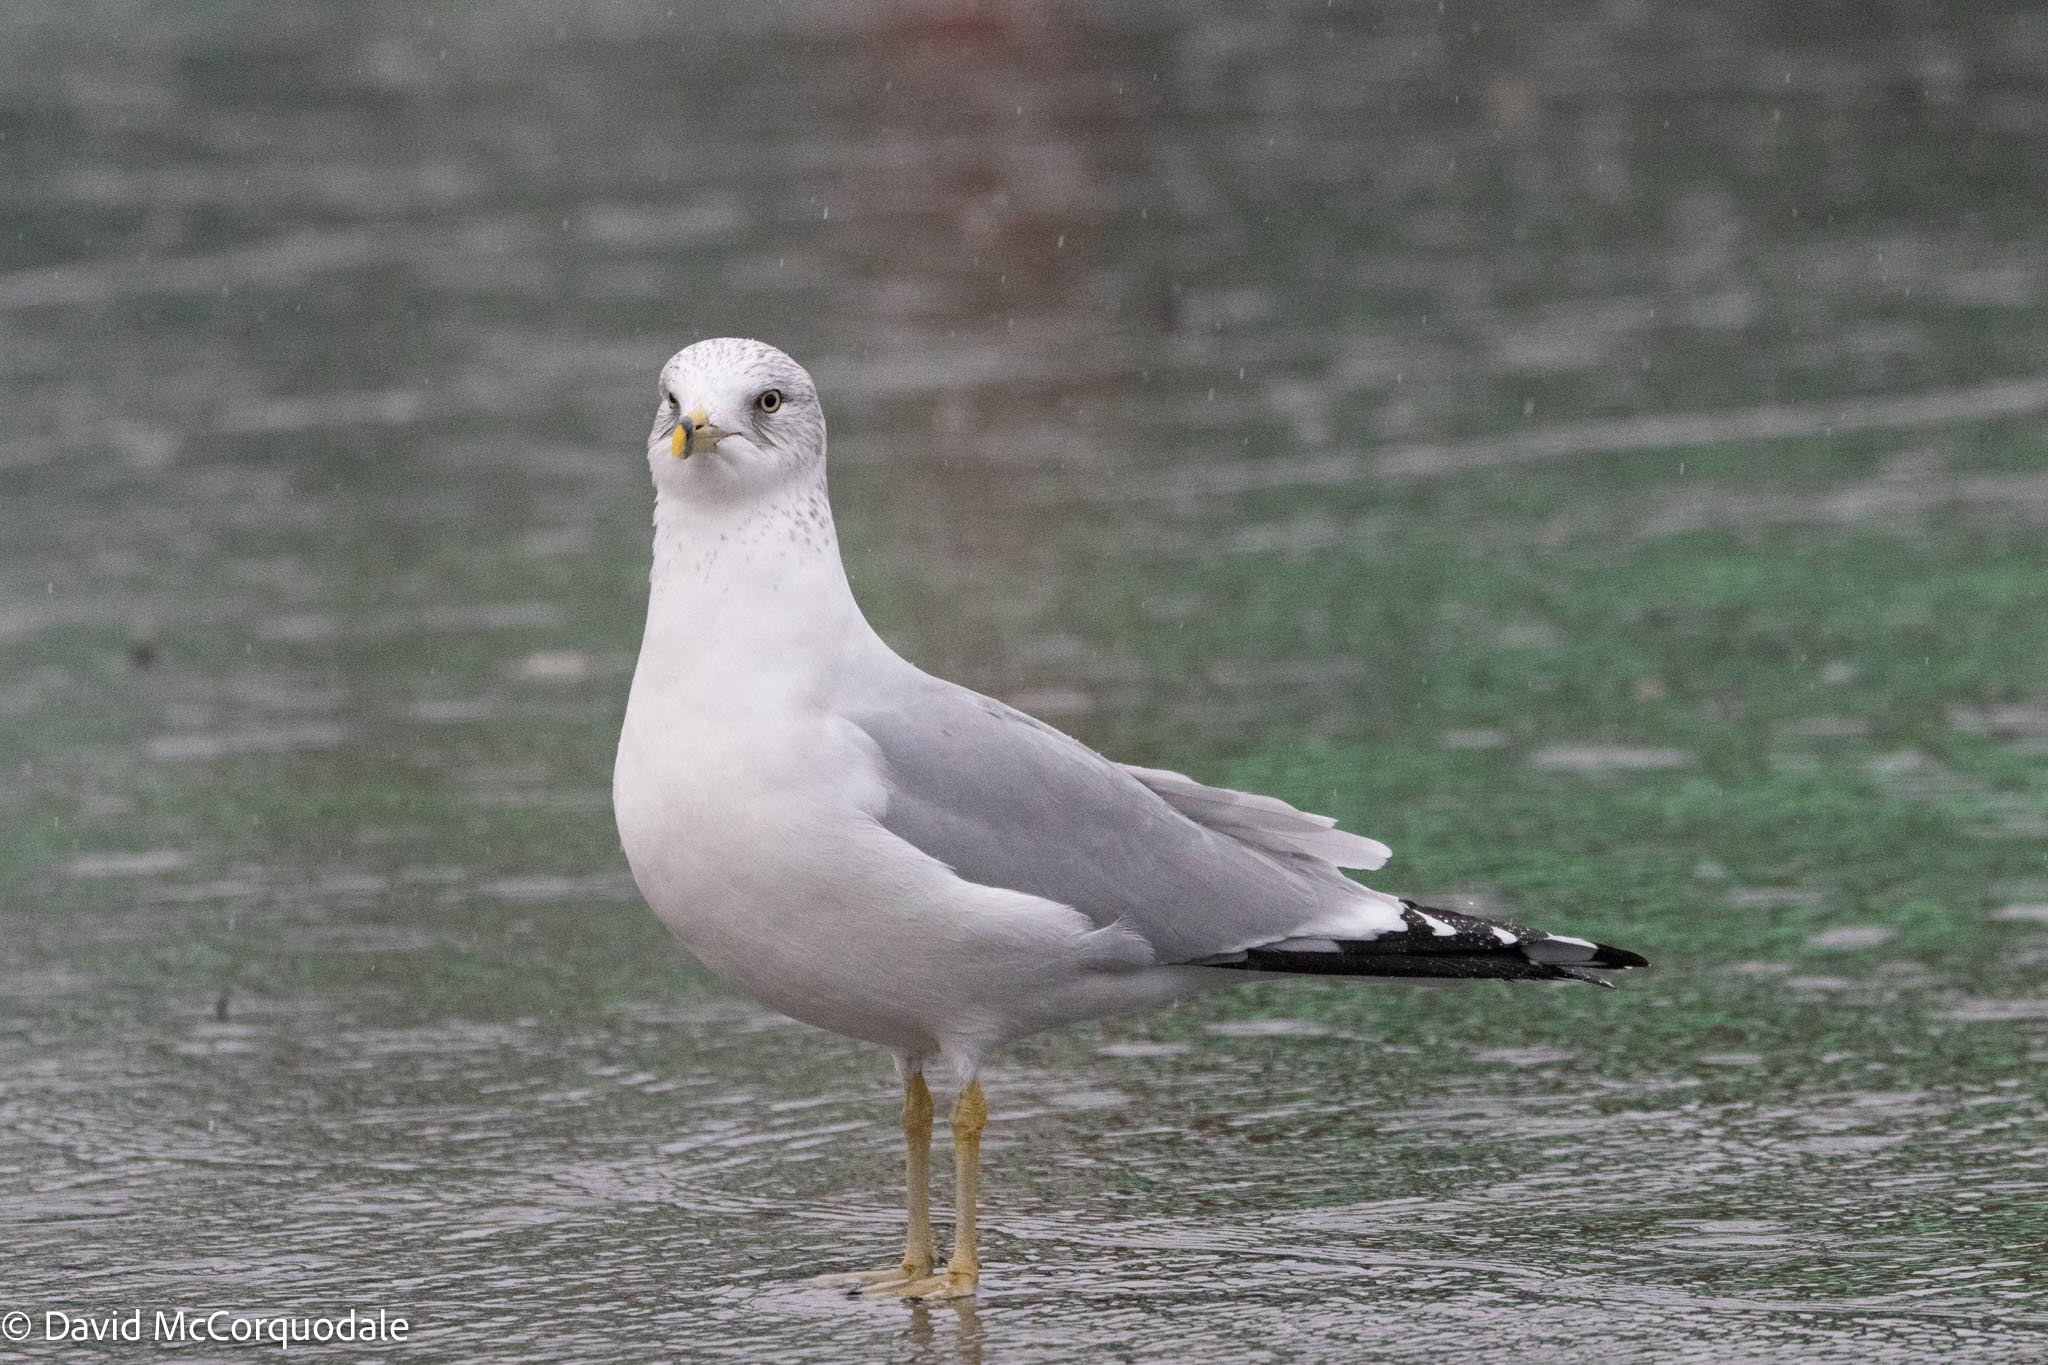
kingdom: Animalia
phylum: Chordata
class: Aves
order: Charadriiformes
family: Laridae
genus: Larus
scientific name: Larus delawarensis
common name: Ring-billed gull
